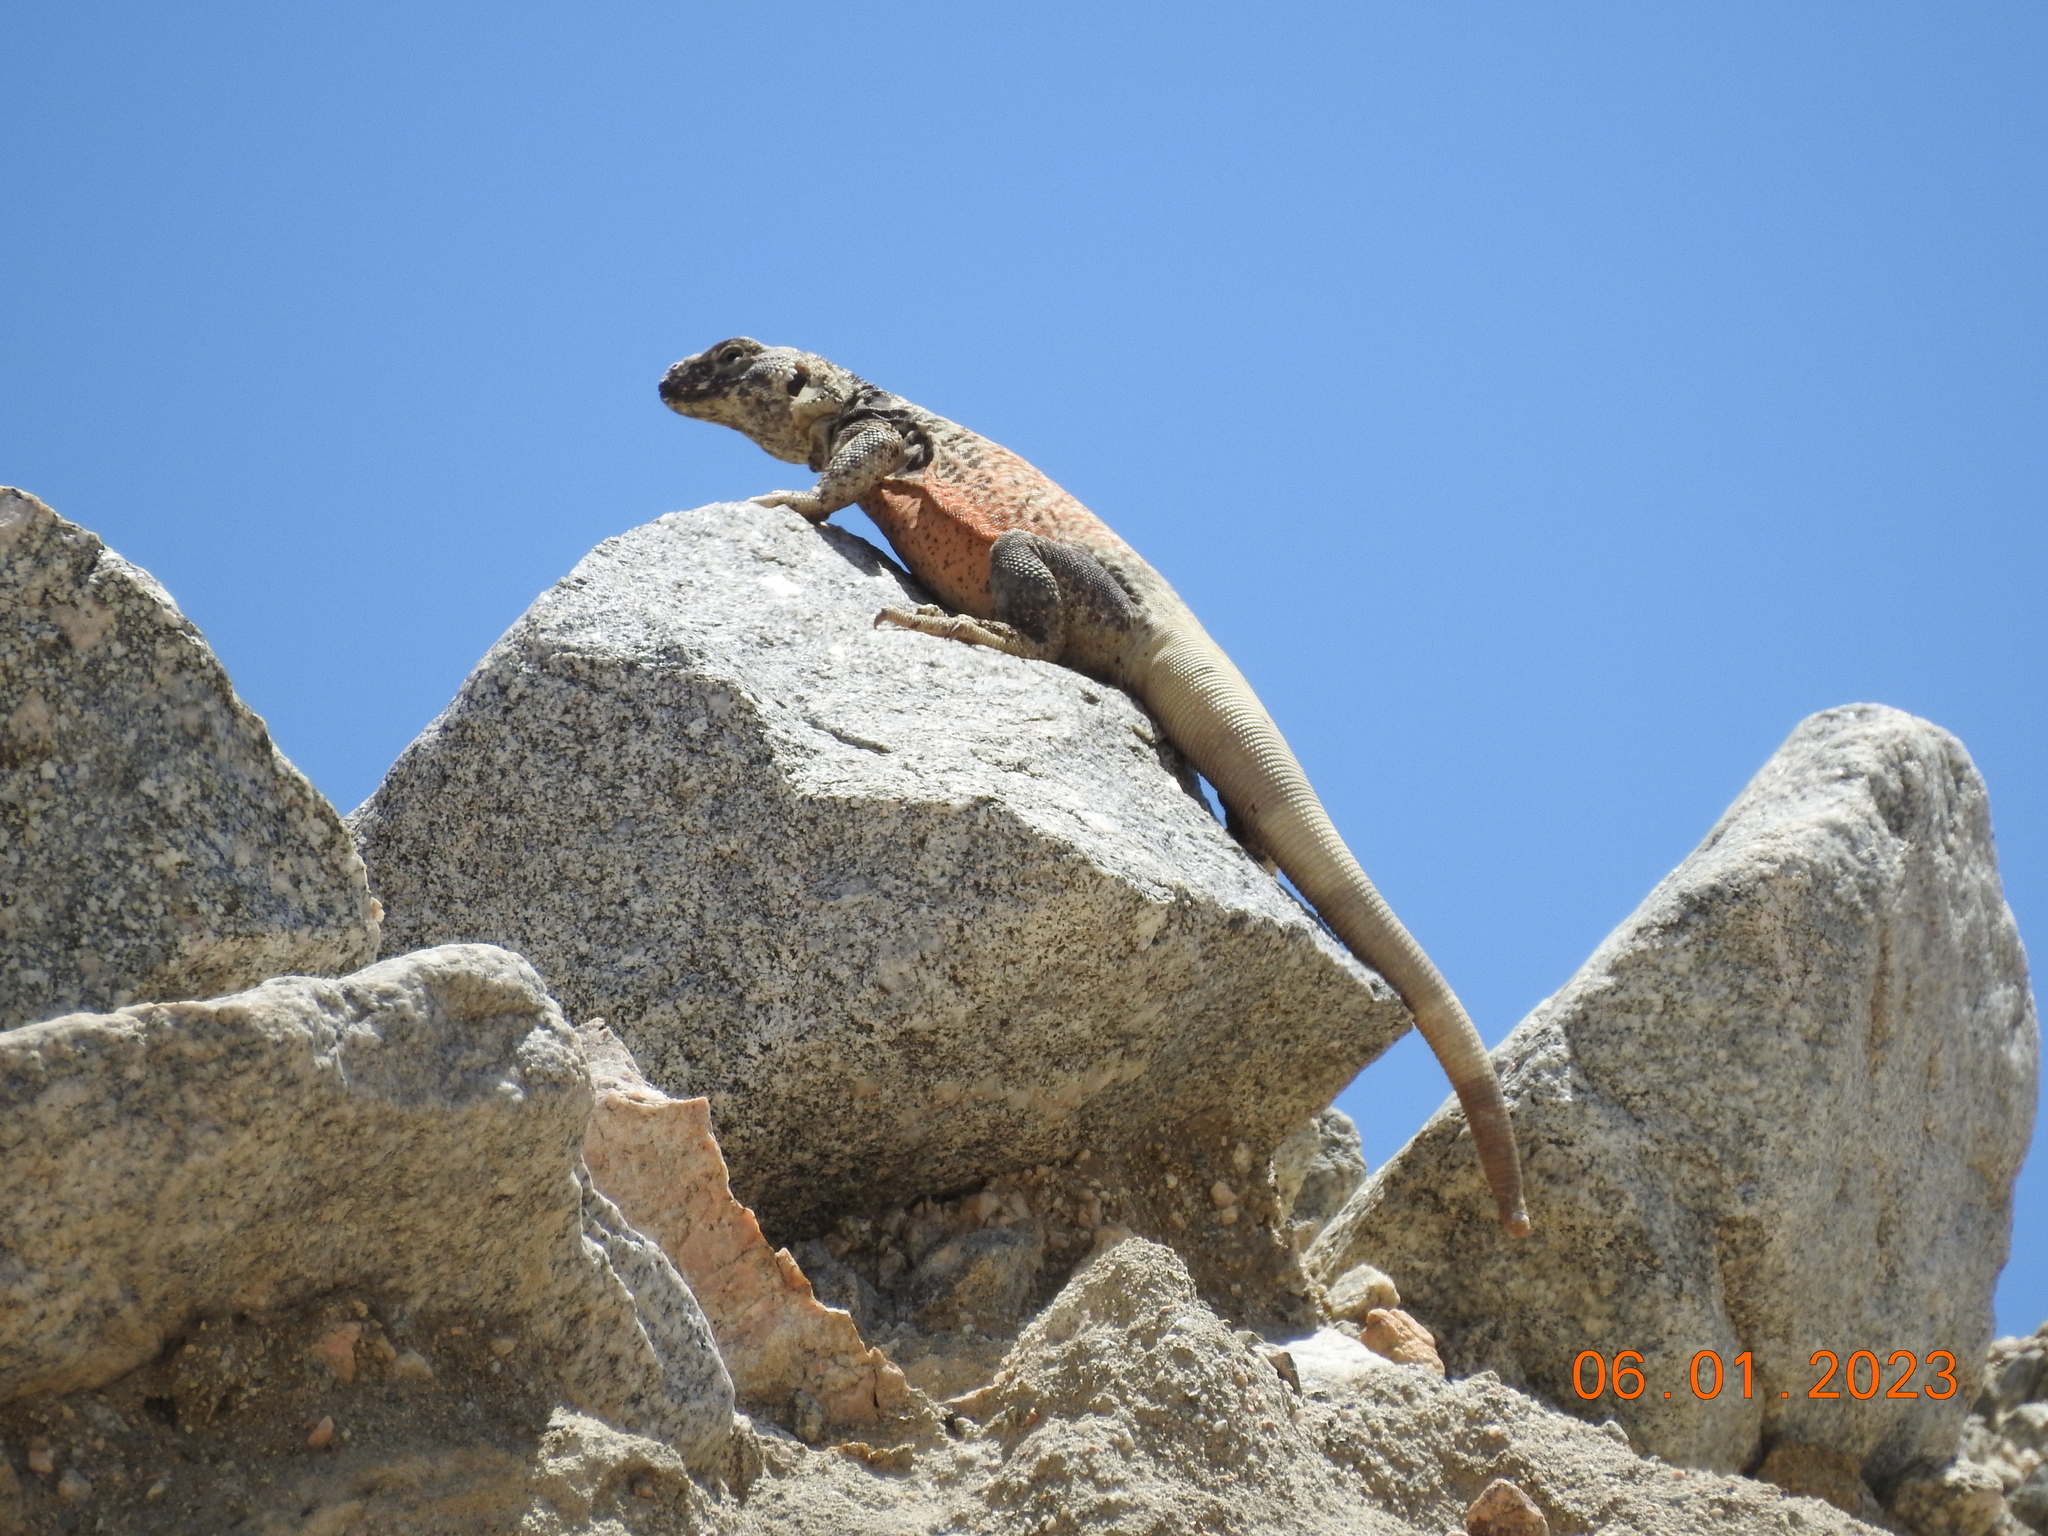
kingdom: Animalia
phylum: Chordata
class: Squamata
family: Iguanidae
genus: Sauromalus
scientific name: Sauromalus ater
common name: Northern chuckwalla
